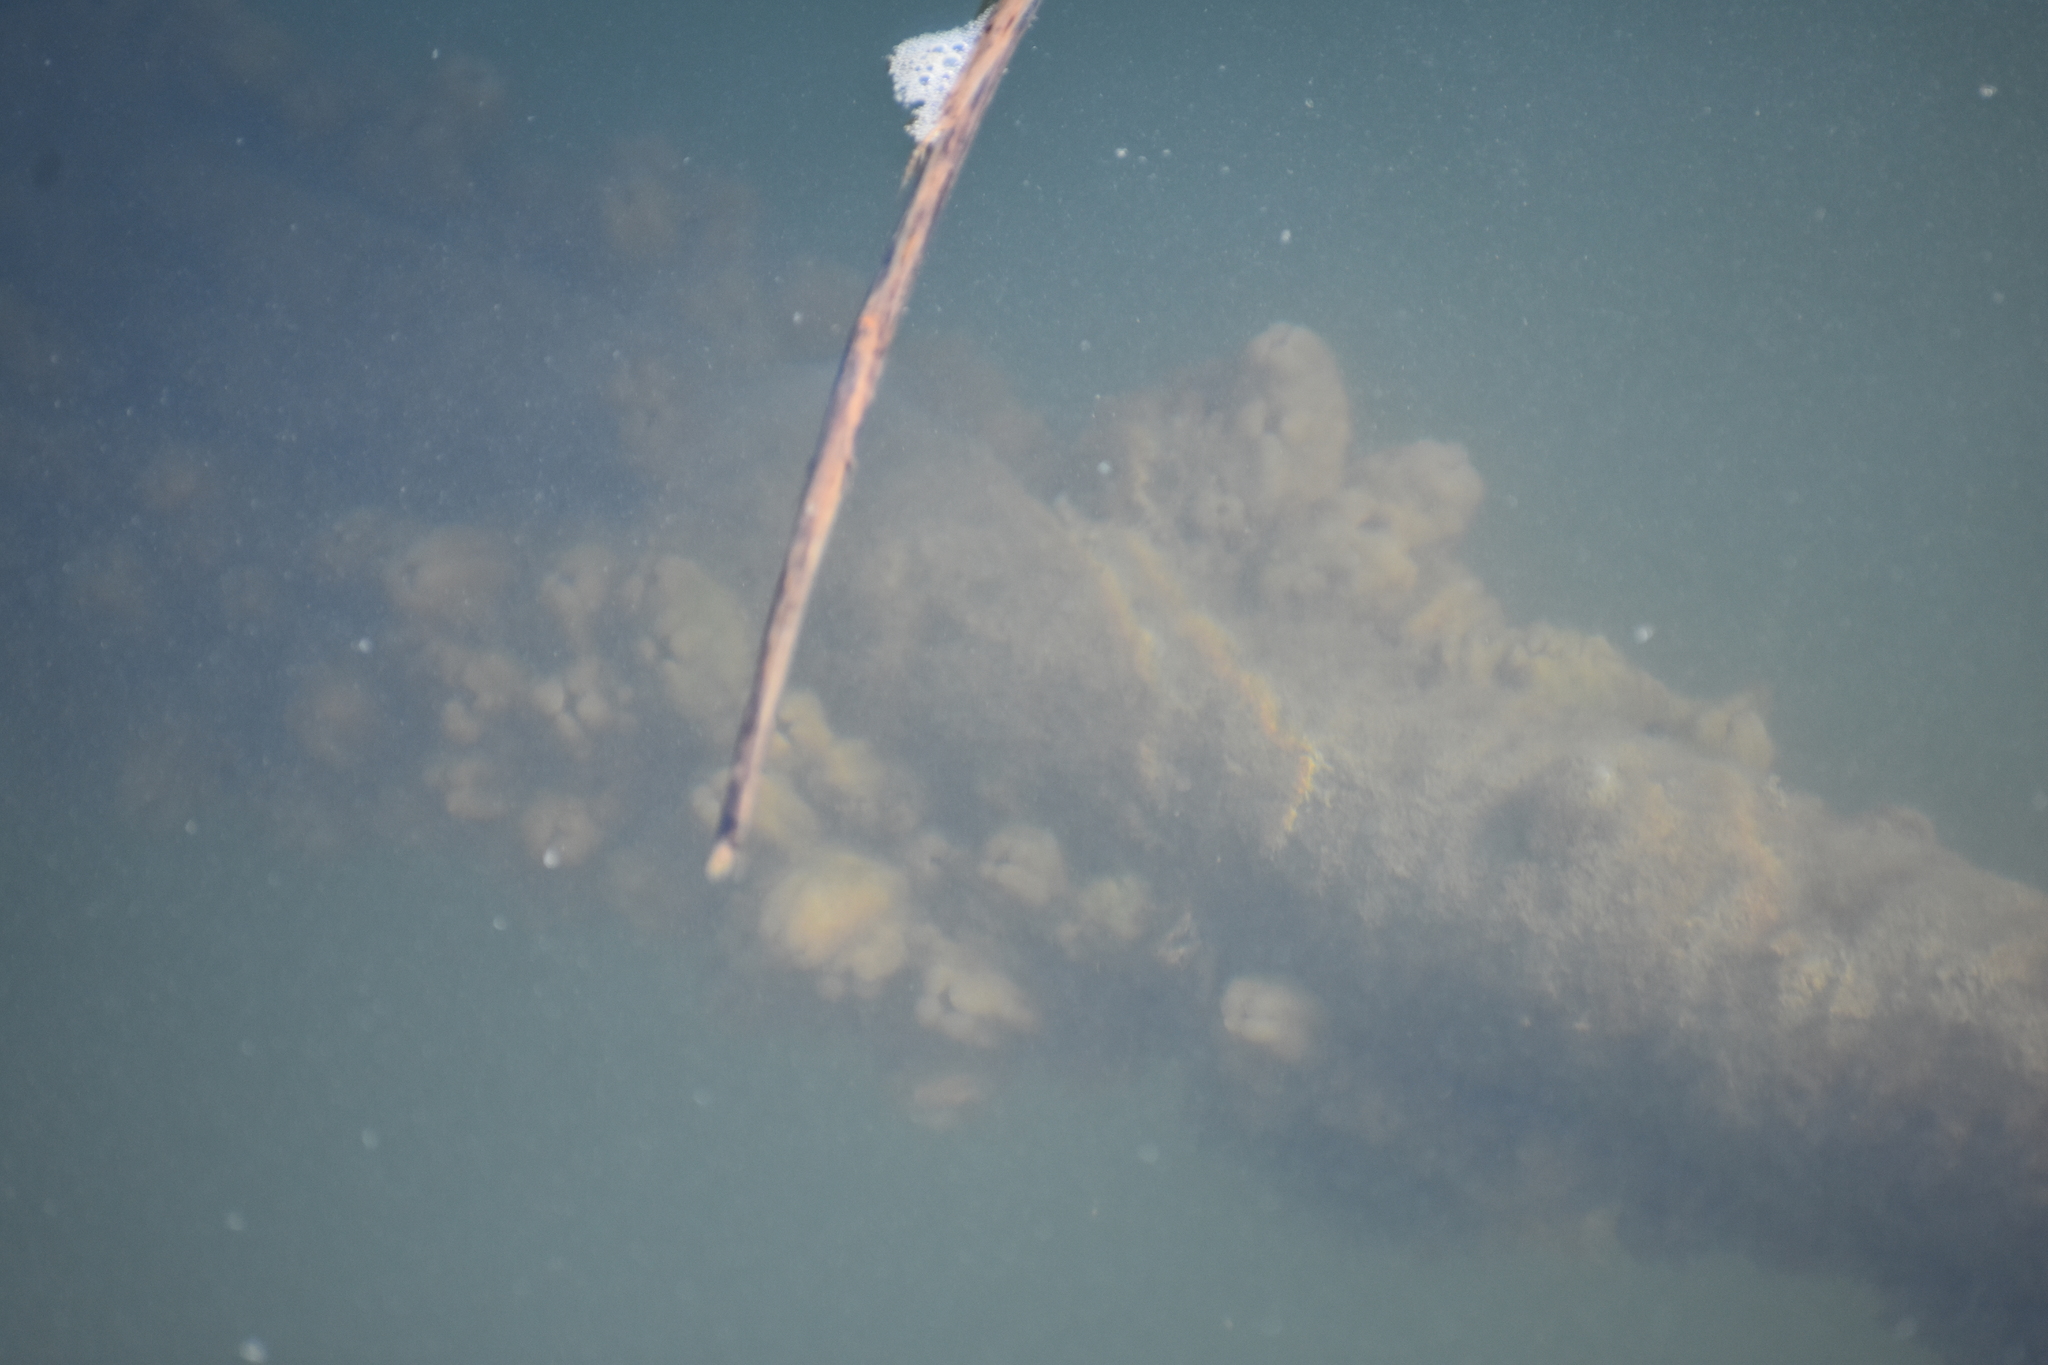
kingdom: Animalia
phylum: Chordata
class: Ascidiacea
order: Stolidobranchia
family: Styelidae
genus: Styela
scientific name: Styela plicata
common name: Pleated tunicate
